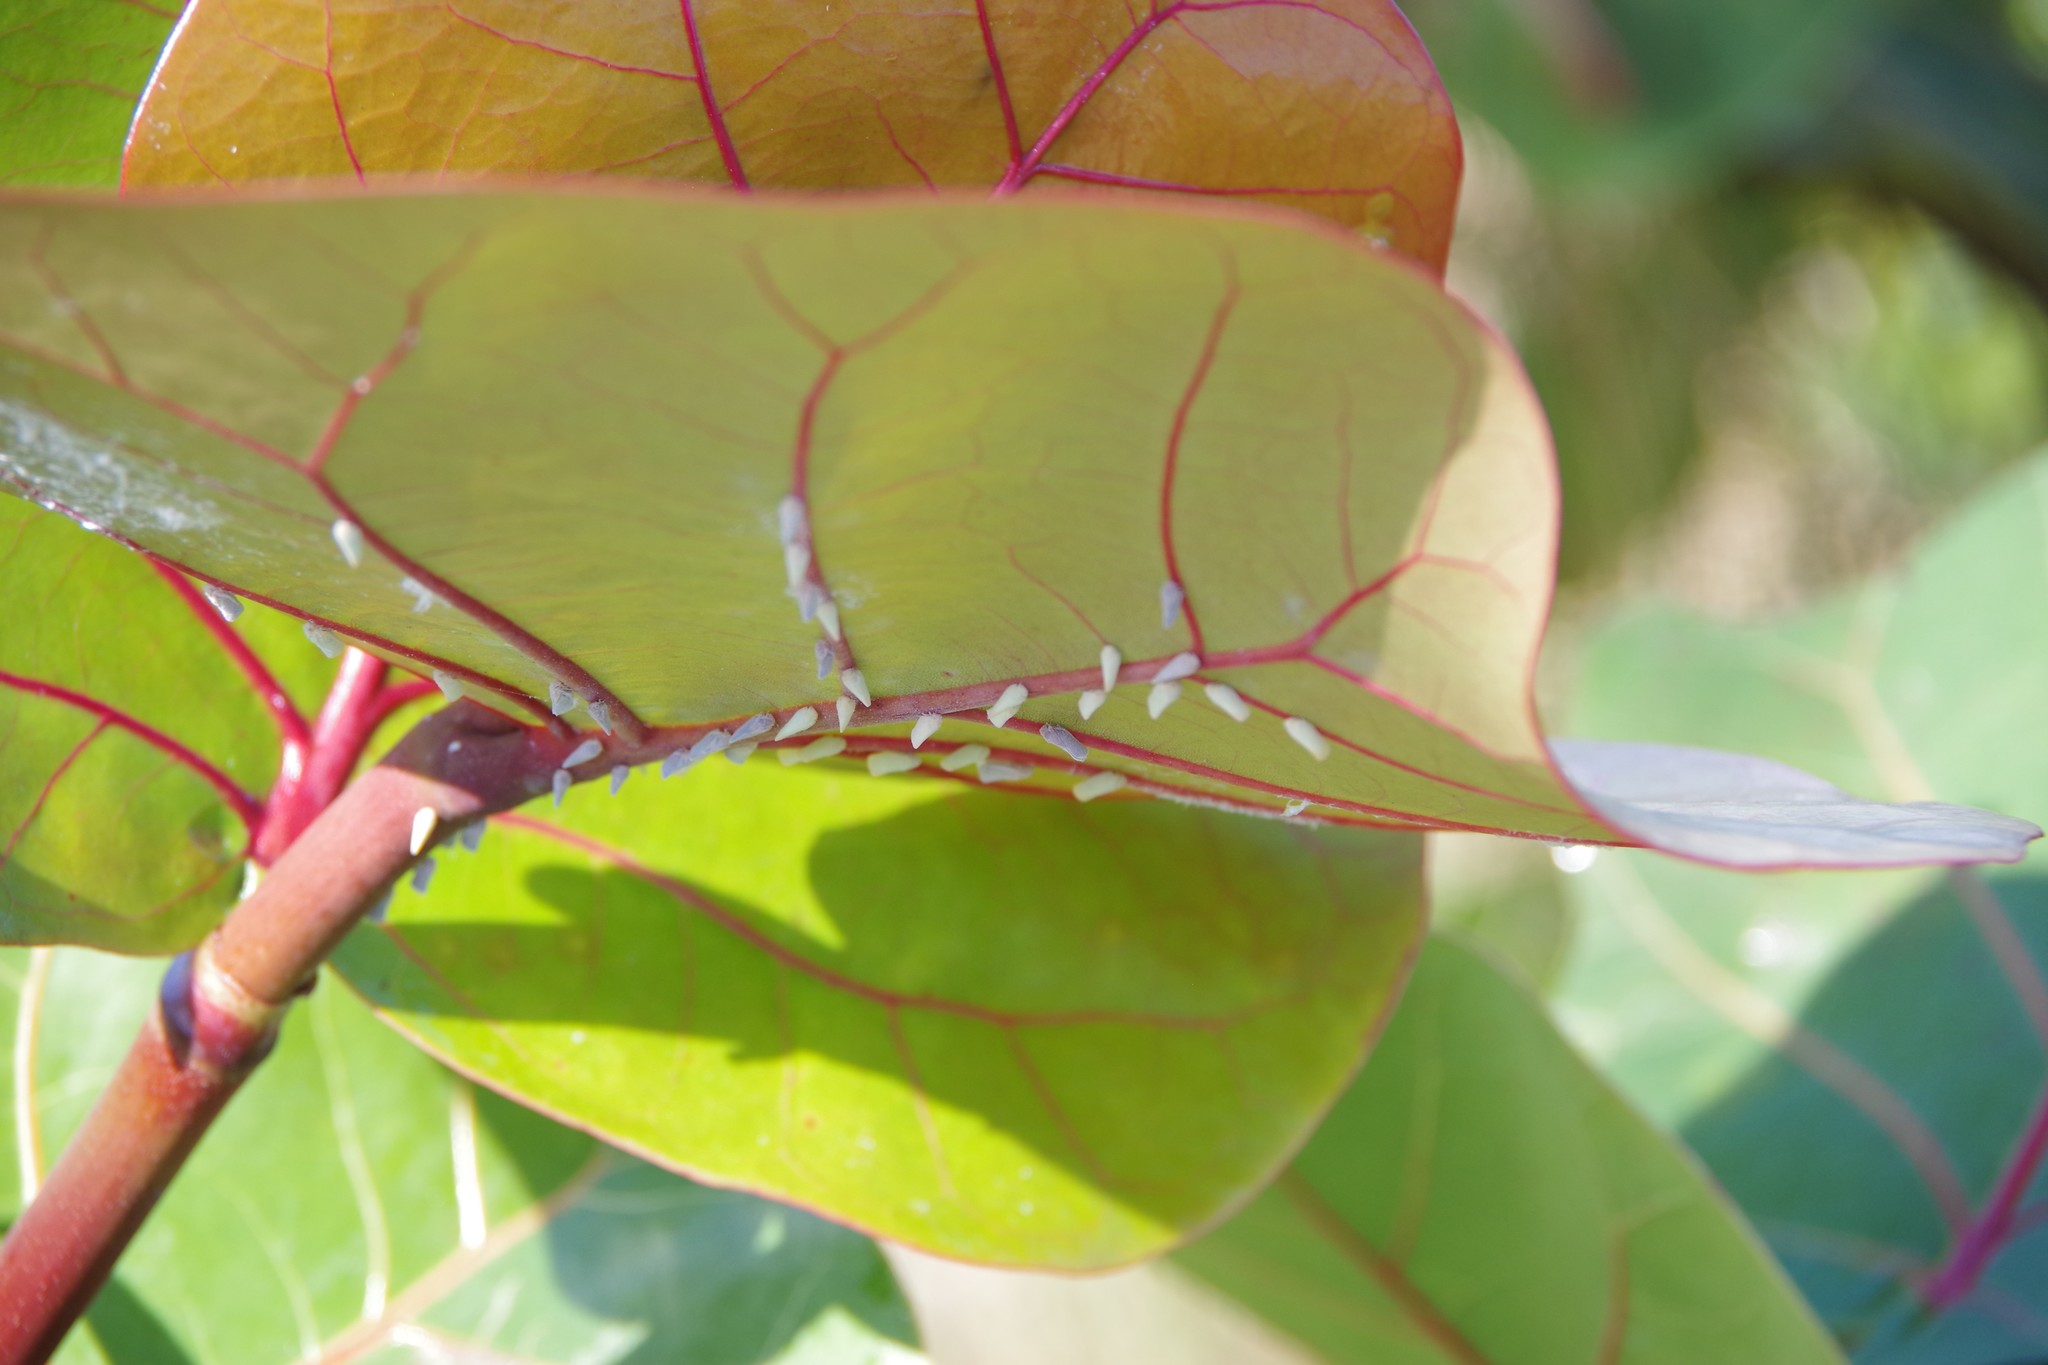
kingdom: Animalia
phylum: Arthropoda
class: Insecta
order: Hemiptera
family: Flatidae
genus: Petrusa
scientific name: Petrusa epilepsis
